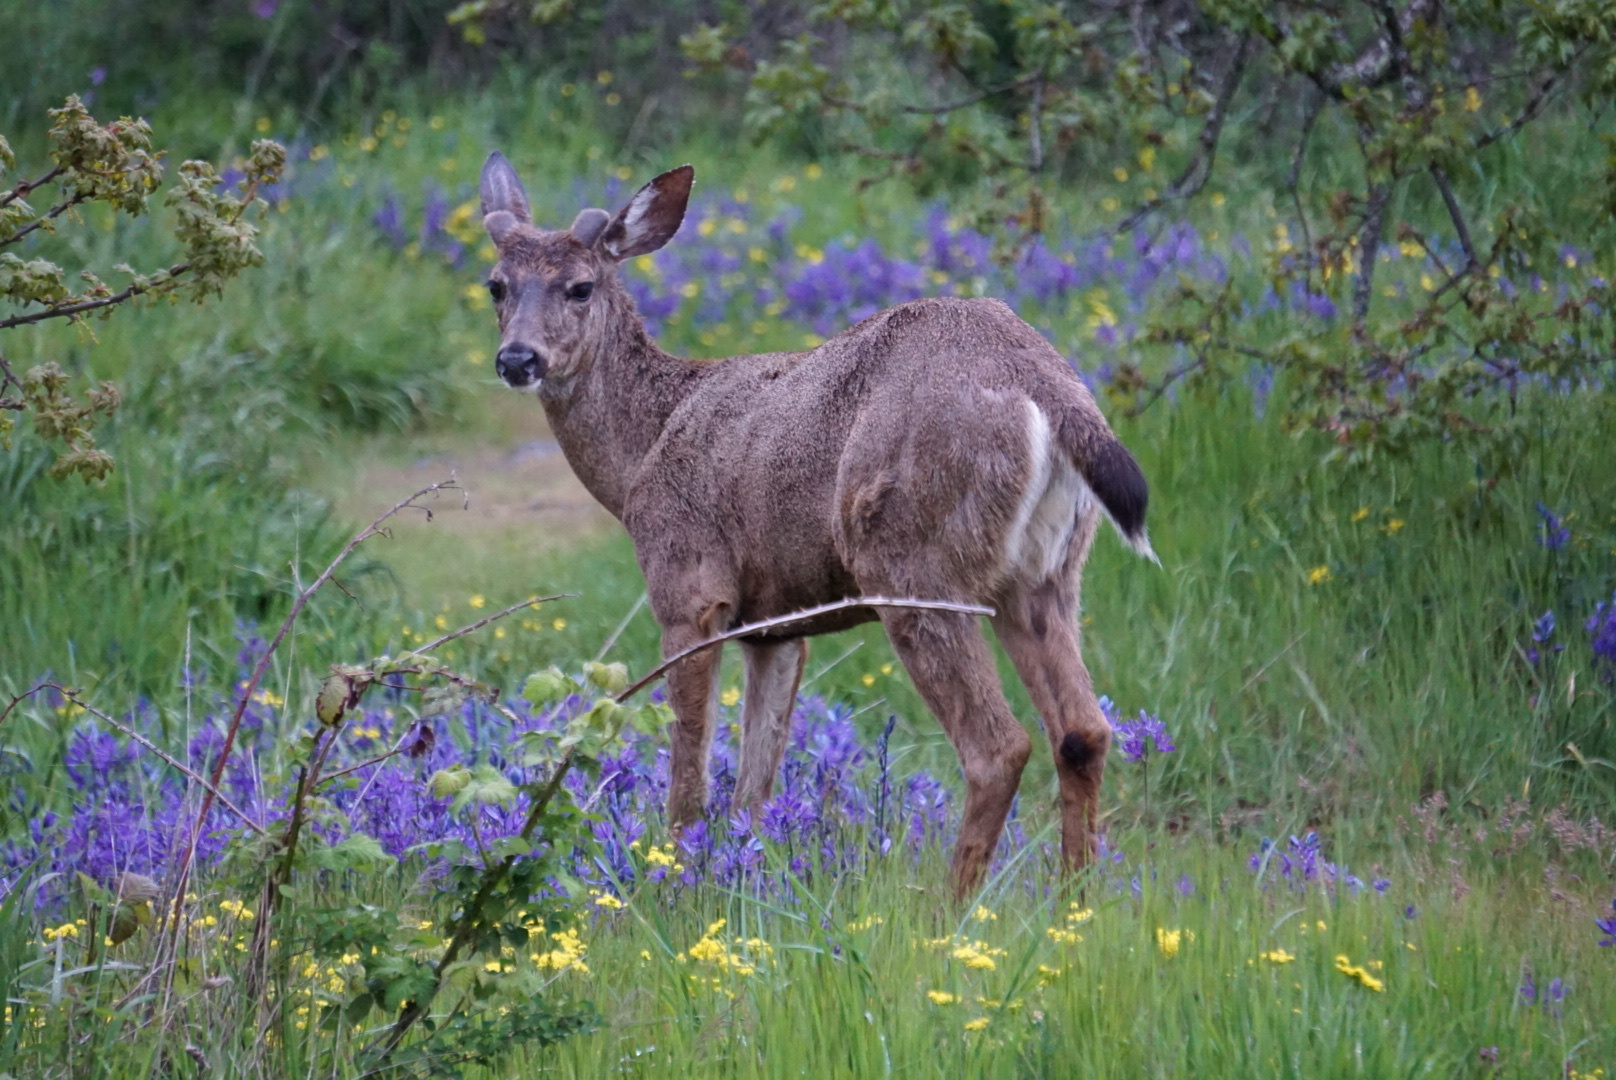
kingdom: Animalia
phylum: Chordata
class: Mammalia
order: Artiodactyla
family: Cervidae
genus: Odocoileus
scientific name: Odocoileus hemionus
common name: Mule deer
